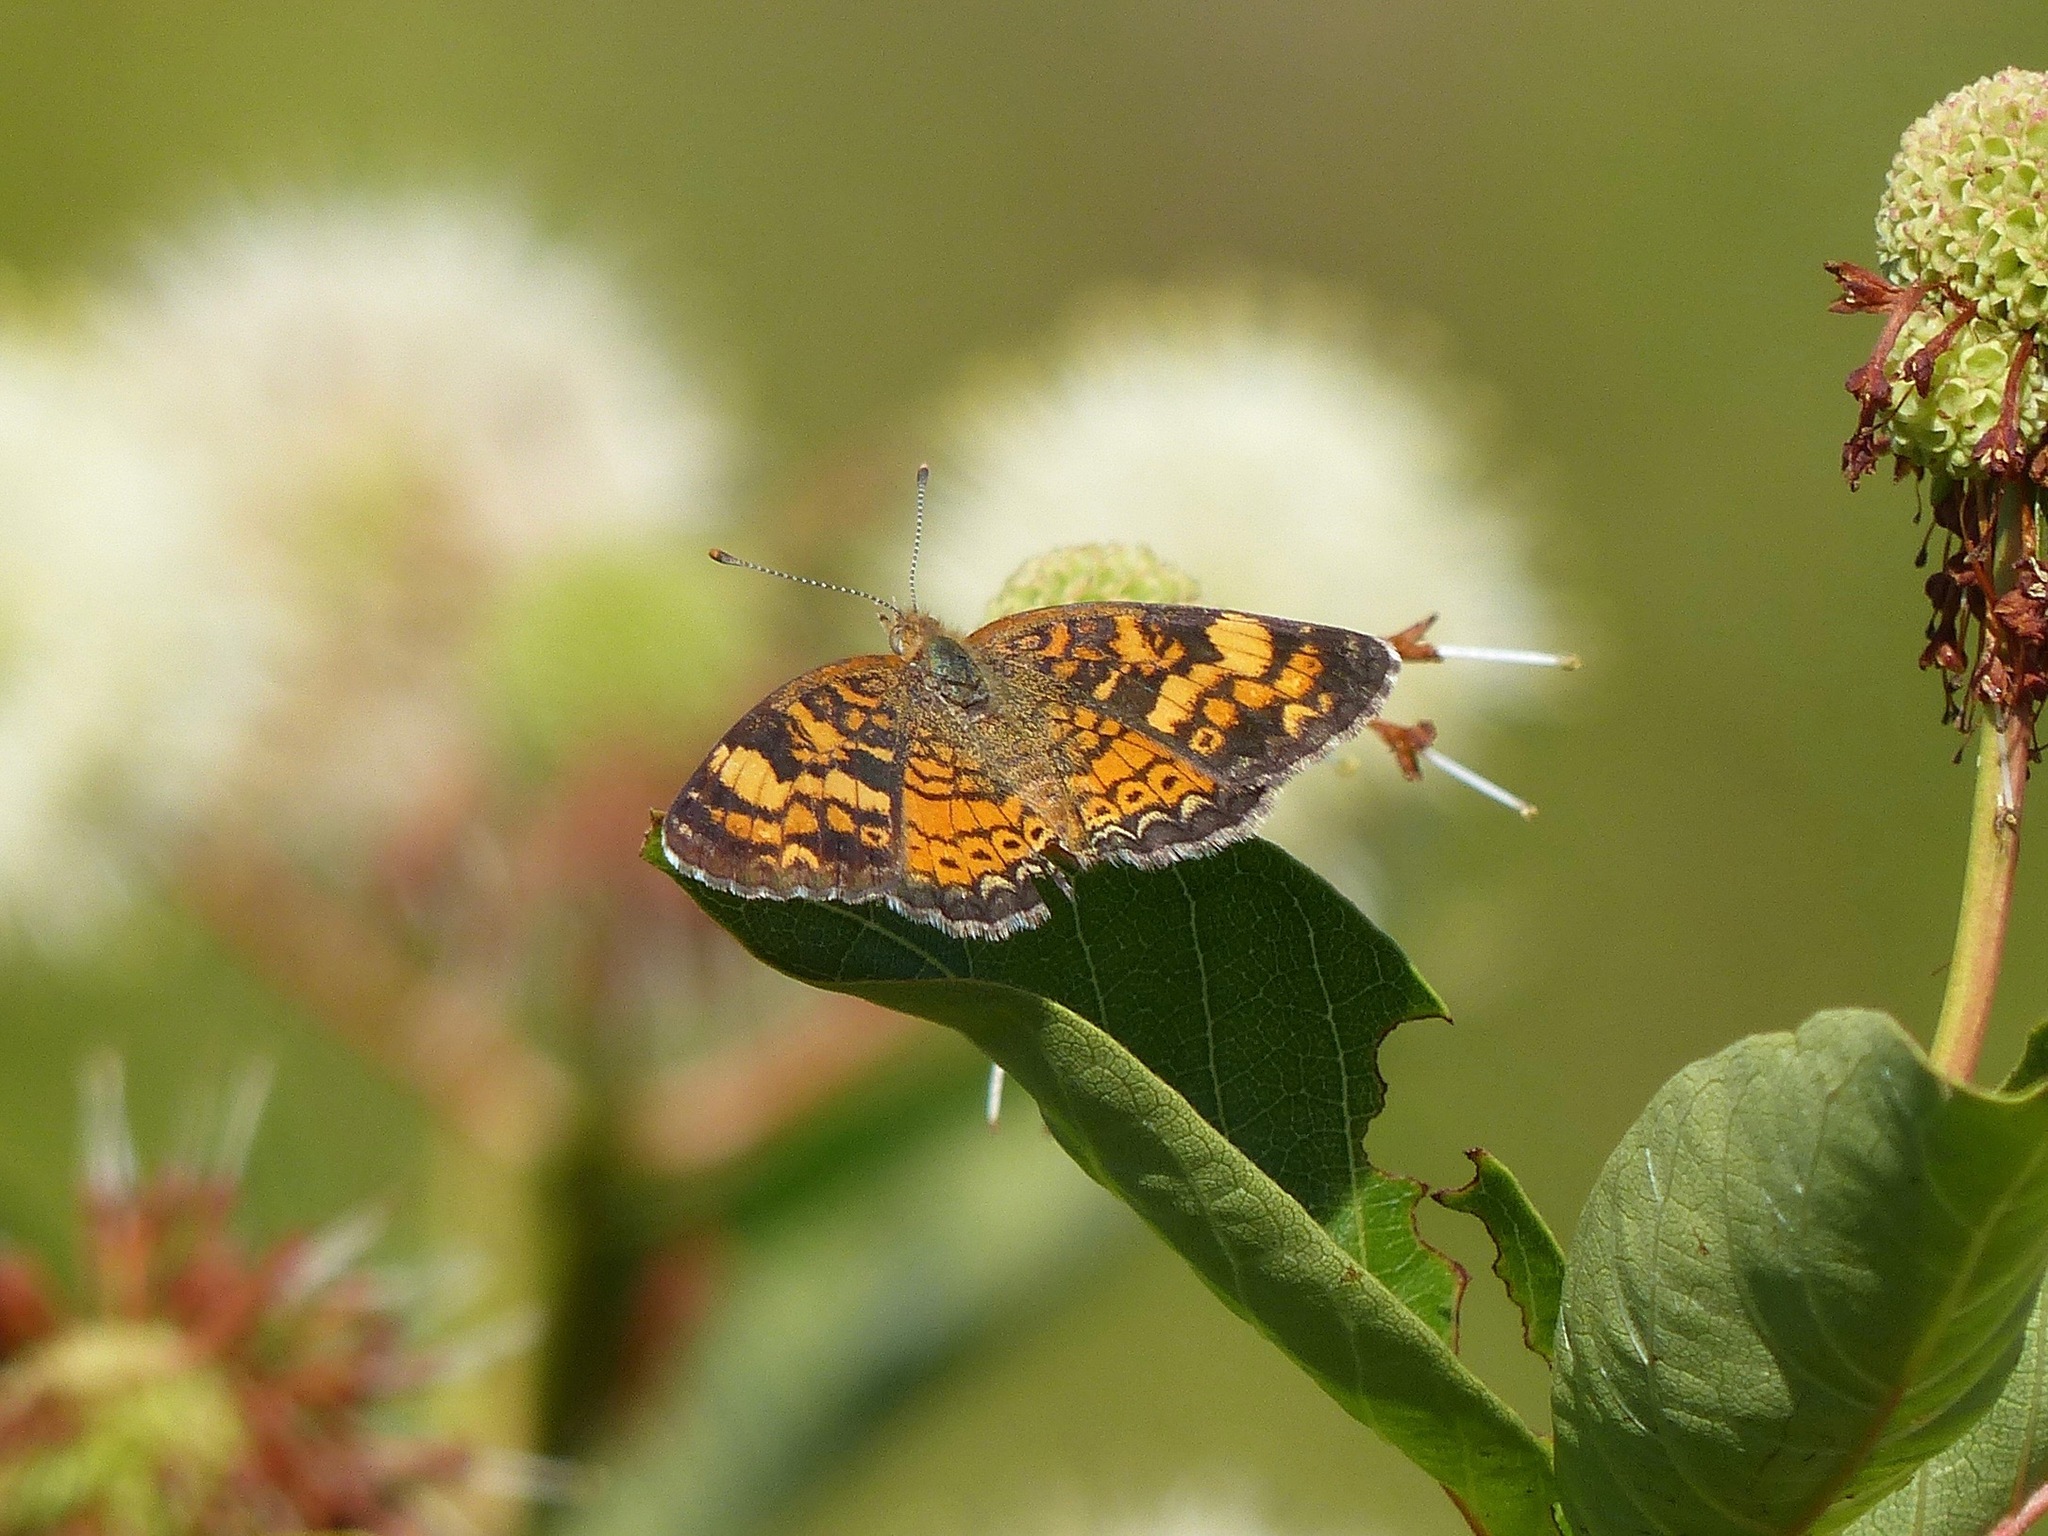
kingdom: Animalia
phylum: Arthropoda
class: Insecta
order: Lepidoptera
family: Nymphalidae
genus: Phyciodes
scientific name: Phyciodes tharos
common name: Pearl crescent
